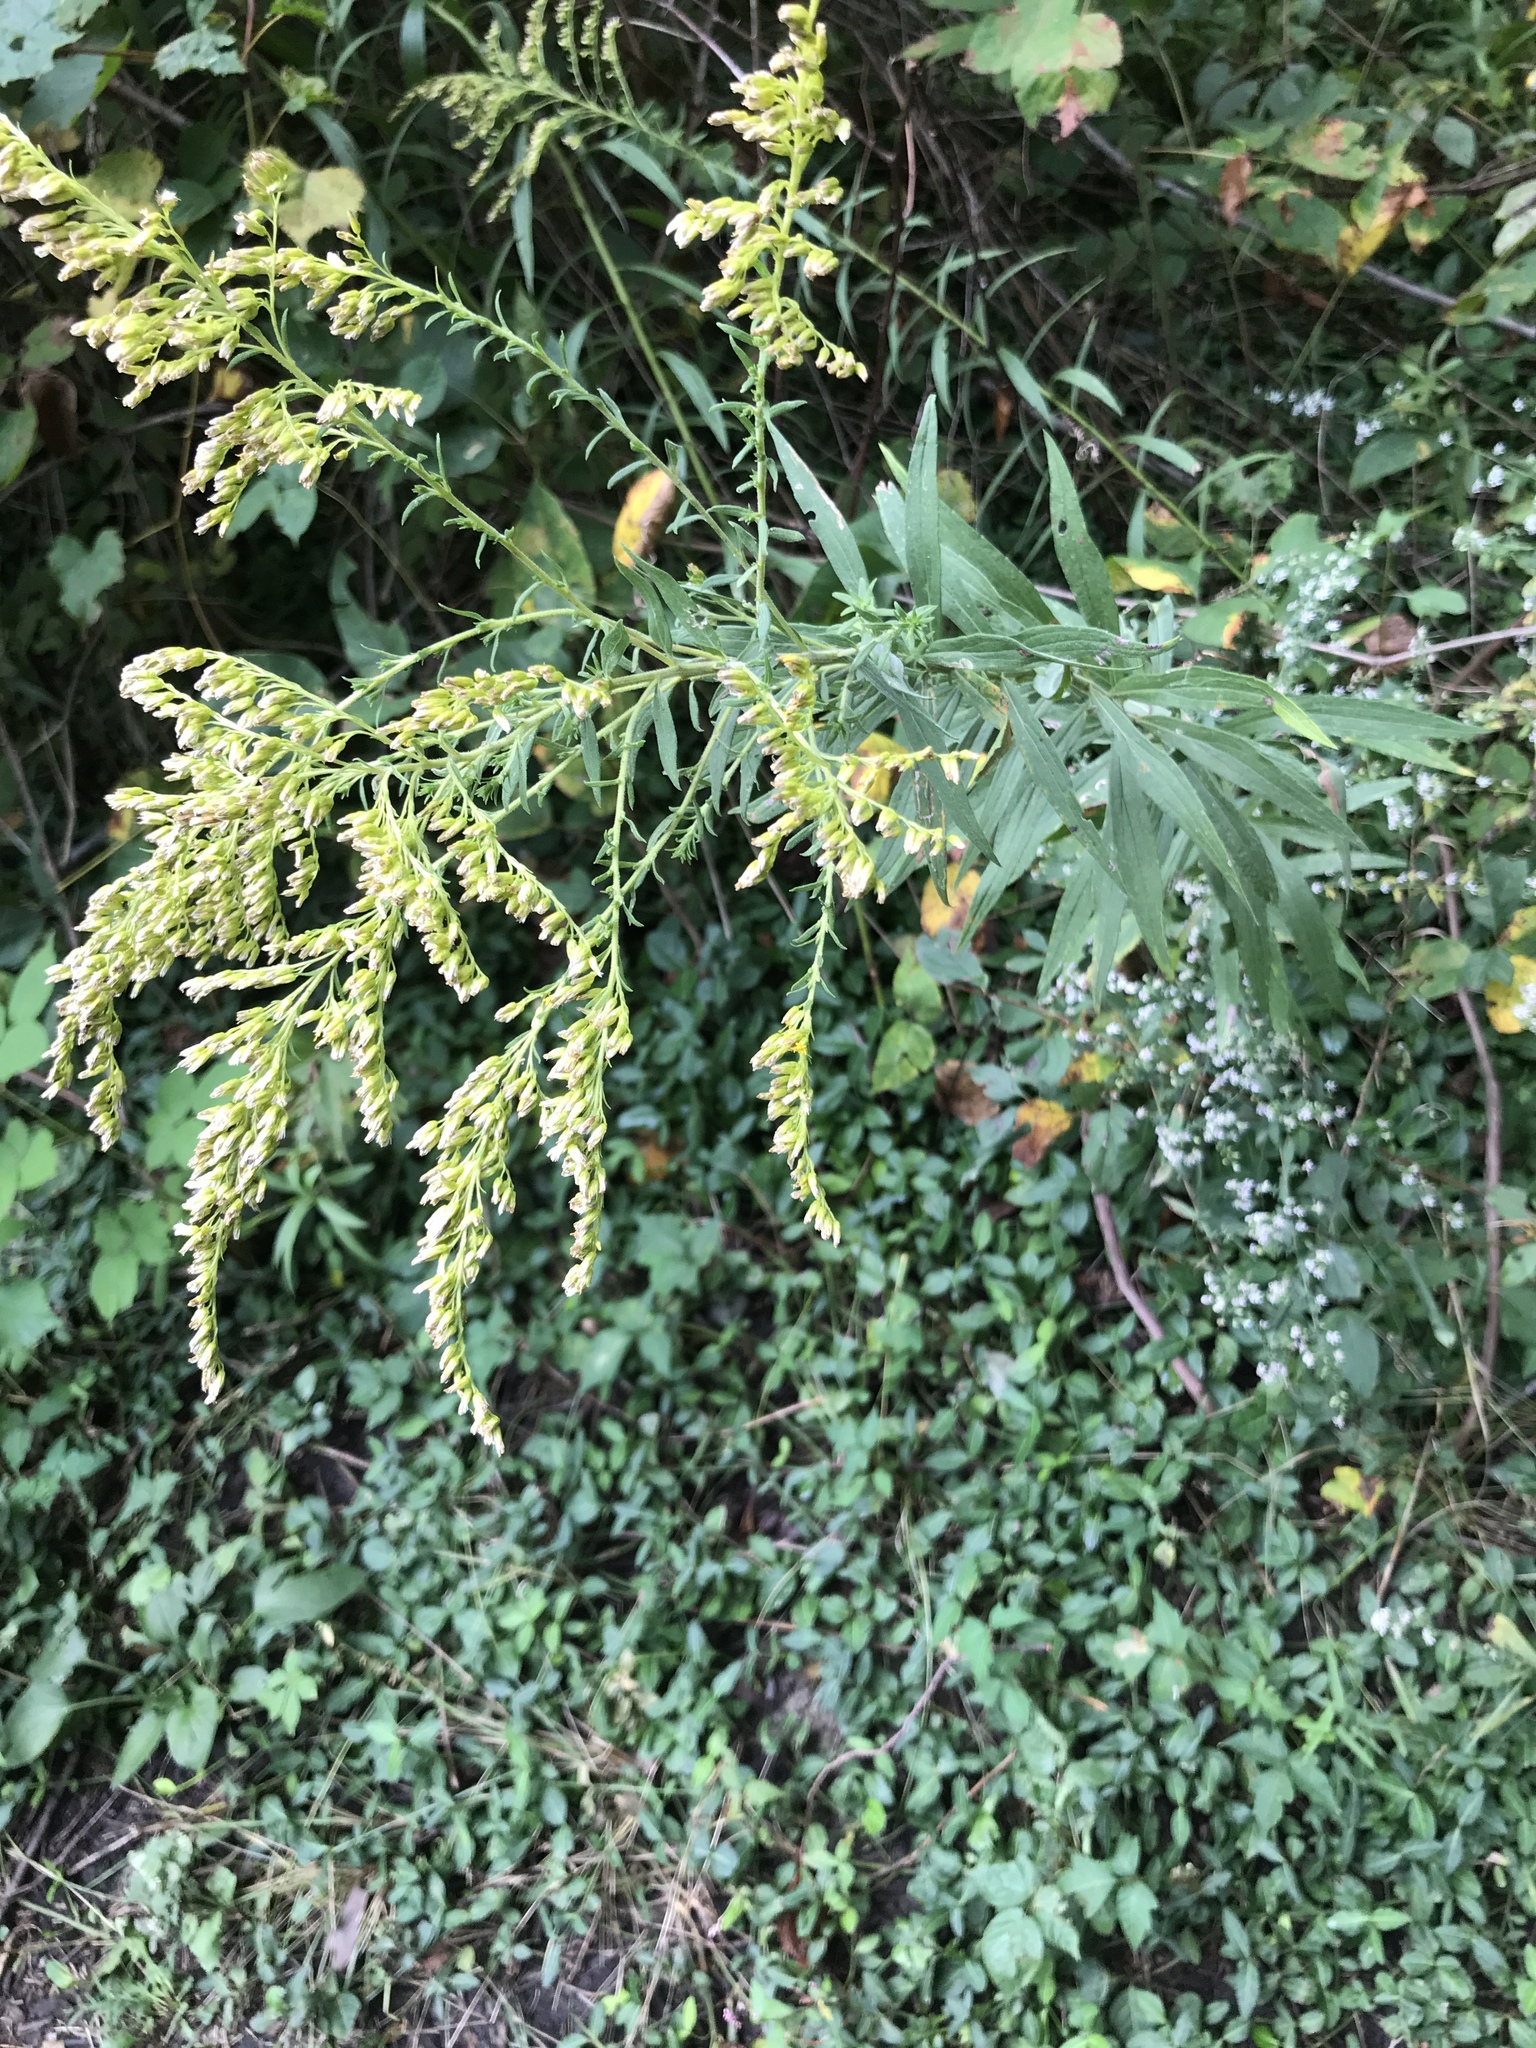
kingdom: Plantae
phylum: Tracheophyta
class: Magnoliopsida
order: Asterales
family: Asteraceae
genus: Solidago
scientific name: Solidago canadensis
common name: Canada goldenrod
